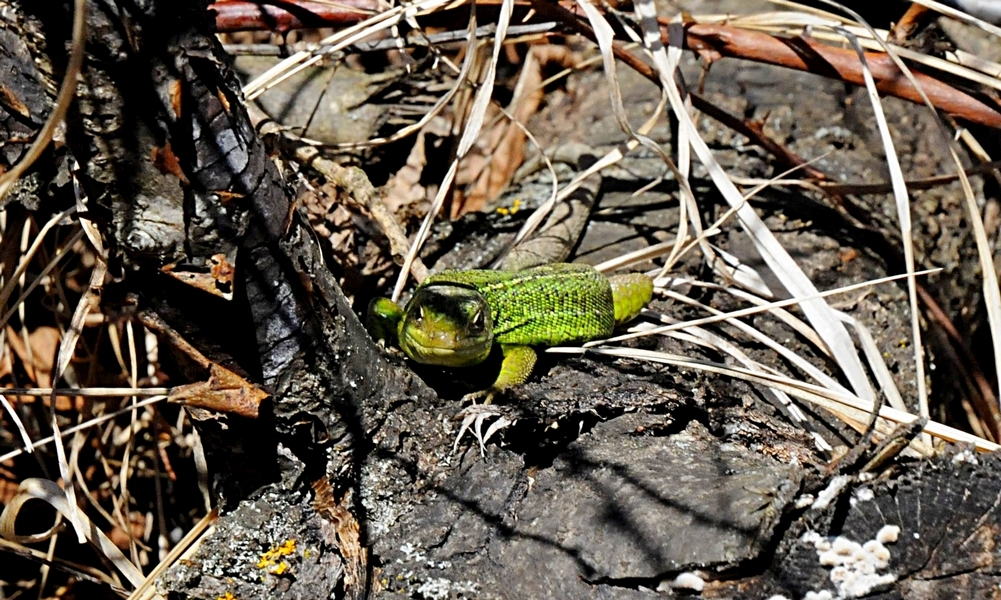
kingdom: Animalia
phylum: Chordata
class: Squamata
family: Lacertidae
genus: Lacerta
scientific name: Lacerta bilineata
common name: Western green lizard
